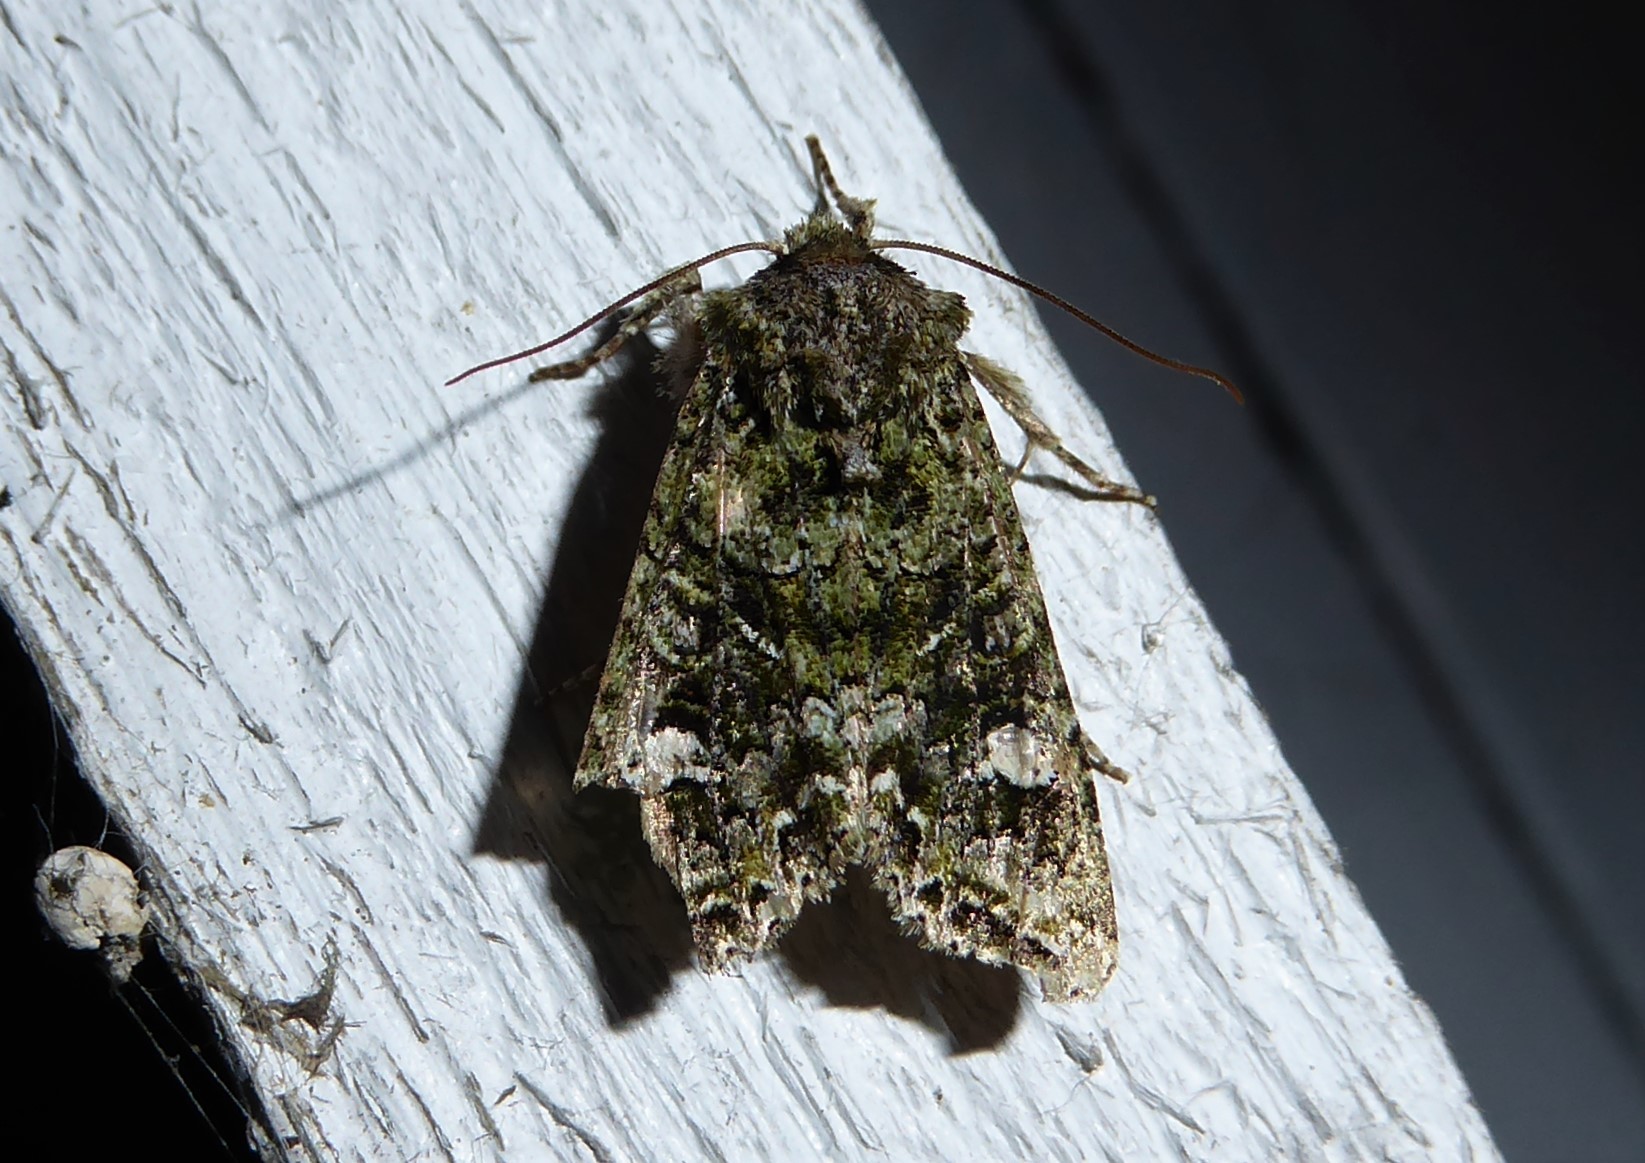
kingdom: Animalia
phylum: Arthropoda
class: Insecta
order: Lepidoptera
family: Noctuidae
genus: Ichneutica
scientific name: Ichneutica
